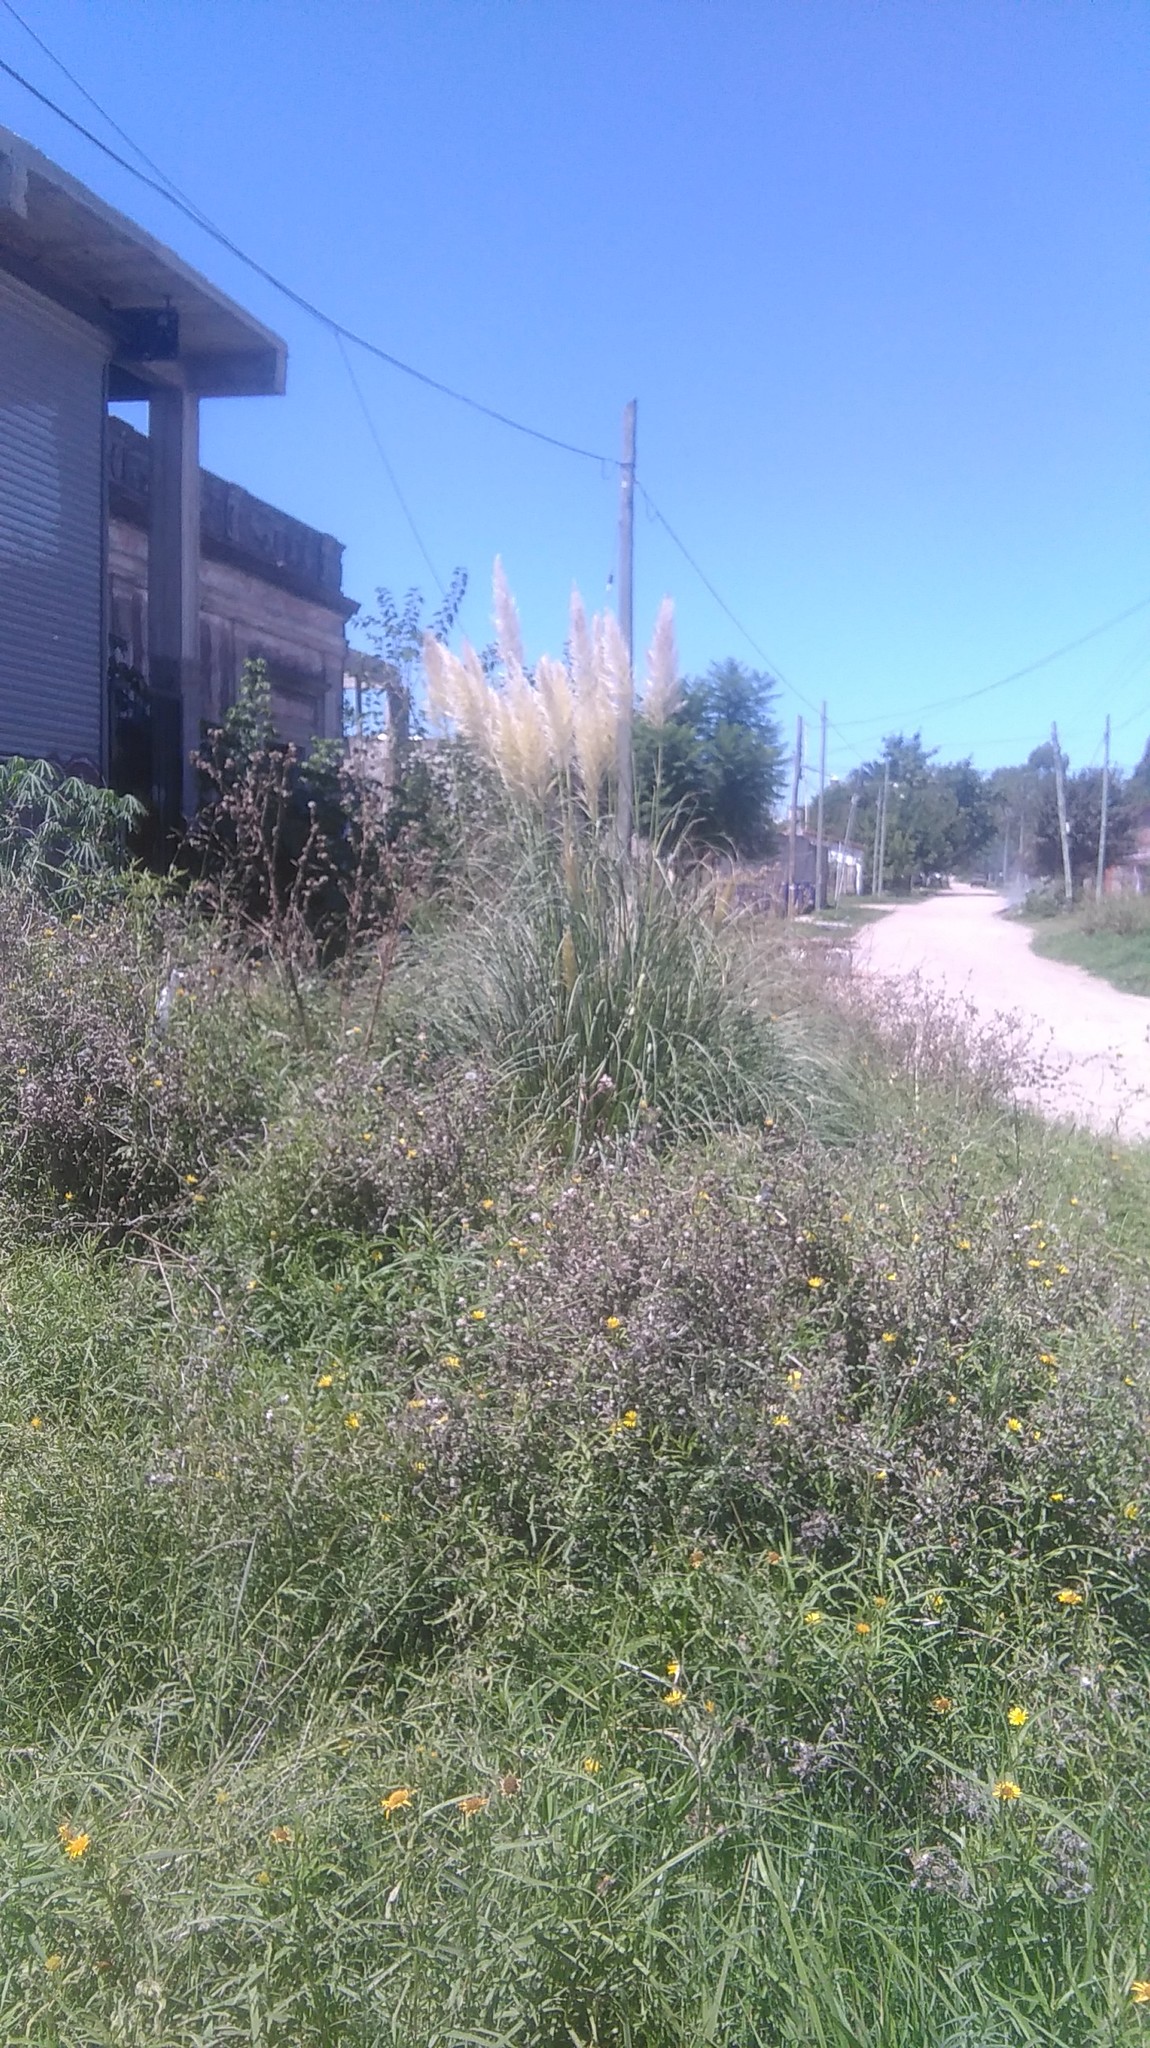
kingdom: Plantae
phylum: Tracheophyta
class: Liliopsida
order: Poales
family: Poaceae
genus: Cortaderia
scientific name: Cortaderia selloana
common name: Uruguayan pampas grass
